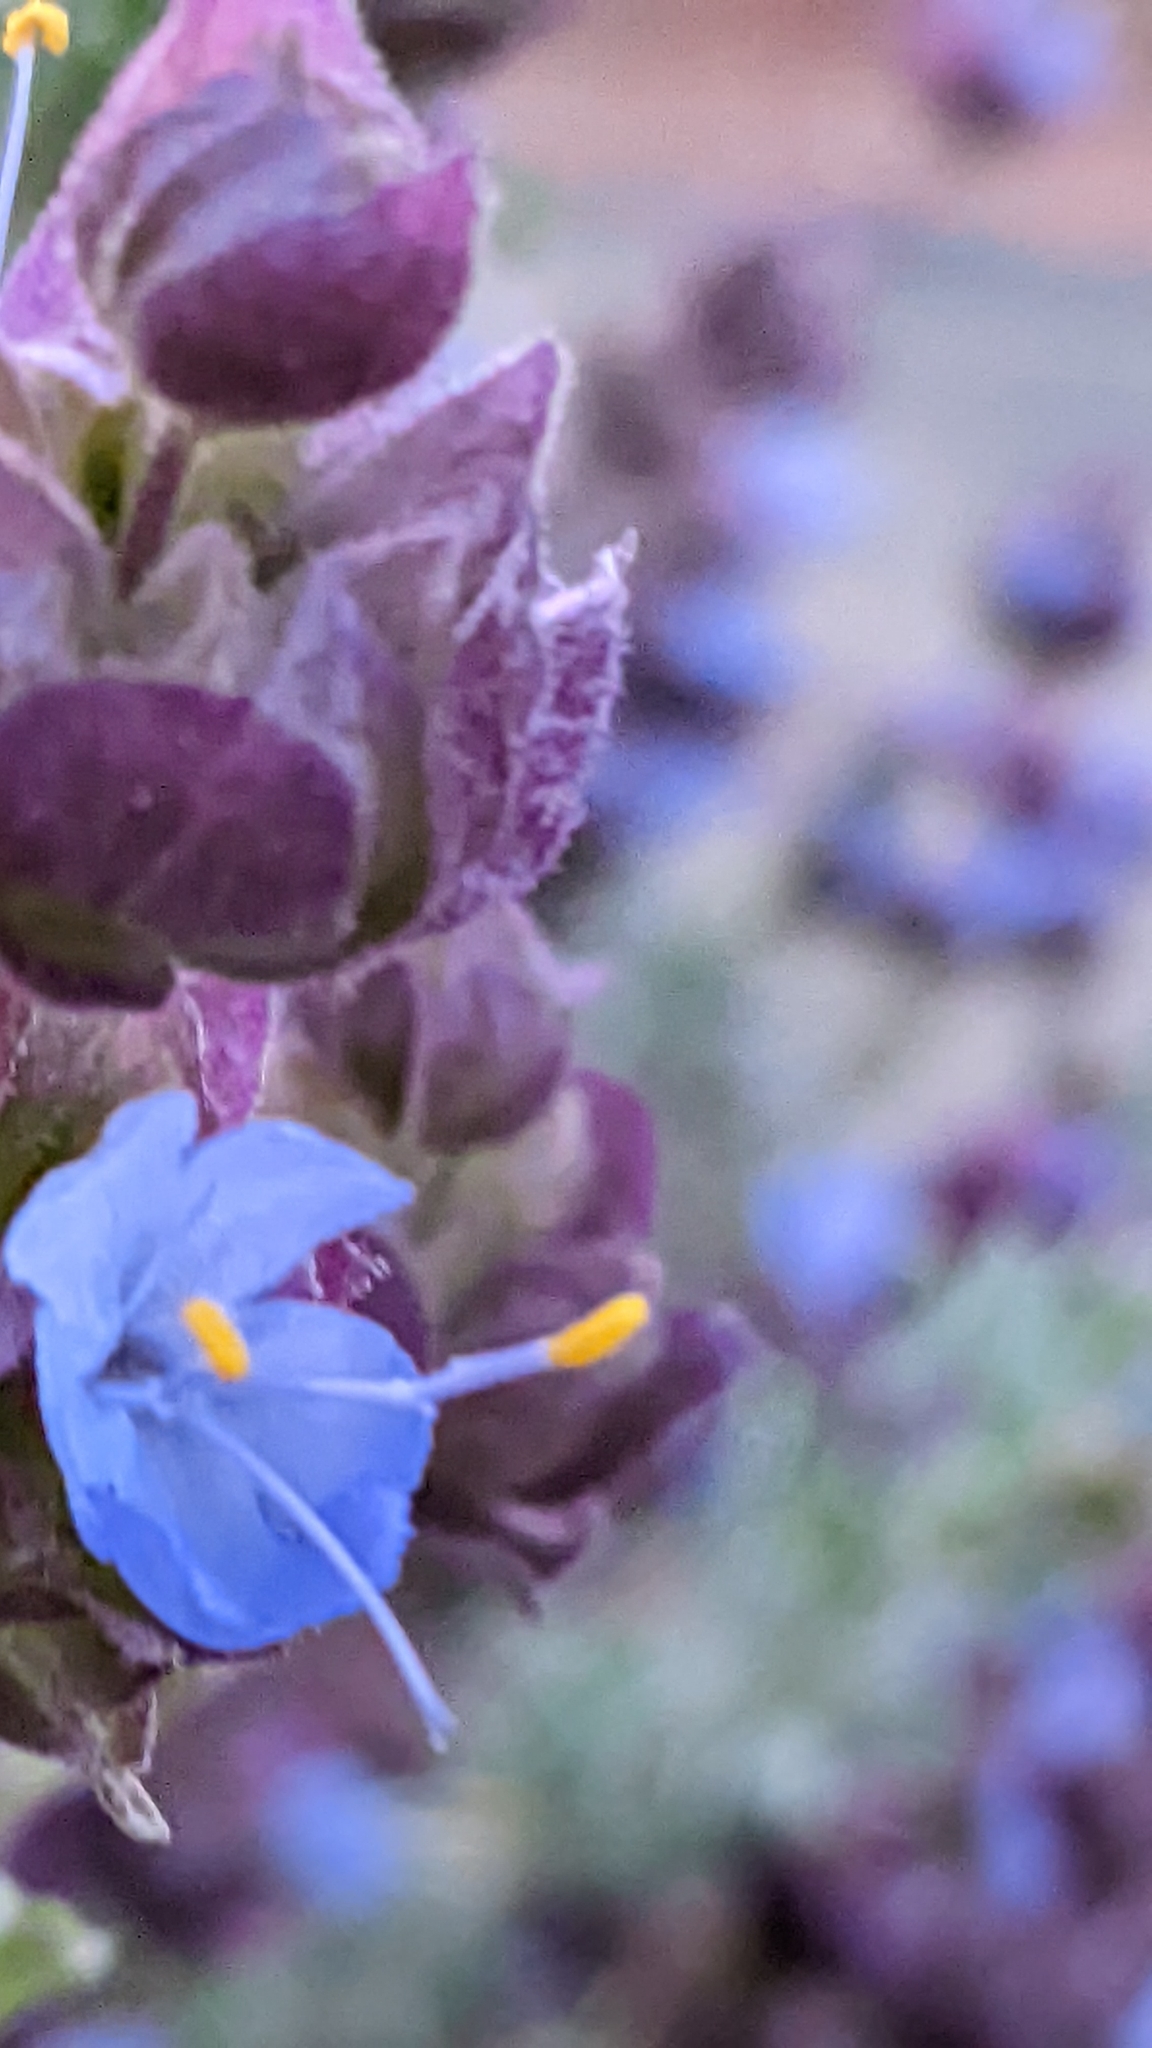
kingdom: Plantae
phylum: Tracheophyta
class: Magnoliopsida
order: Lamiales
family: Lamiaceae
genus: Salvia
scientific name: Salvia dorrii
